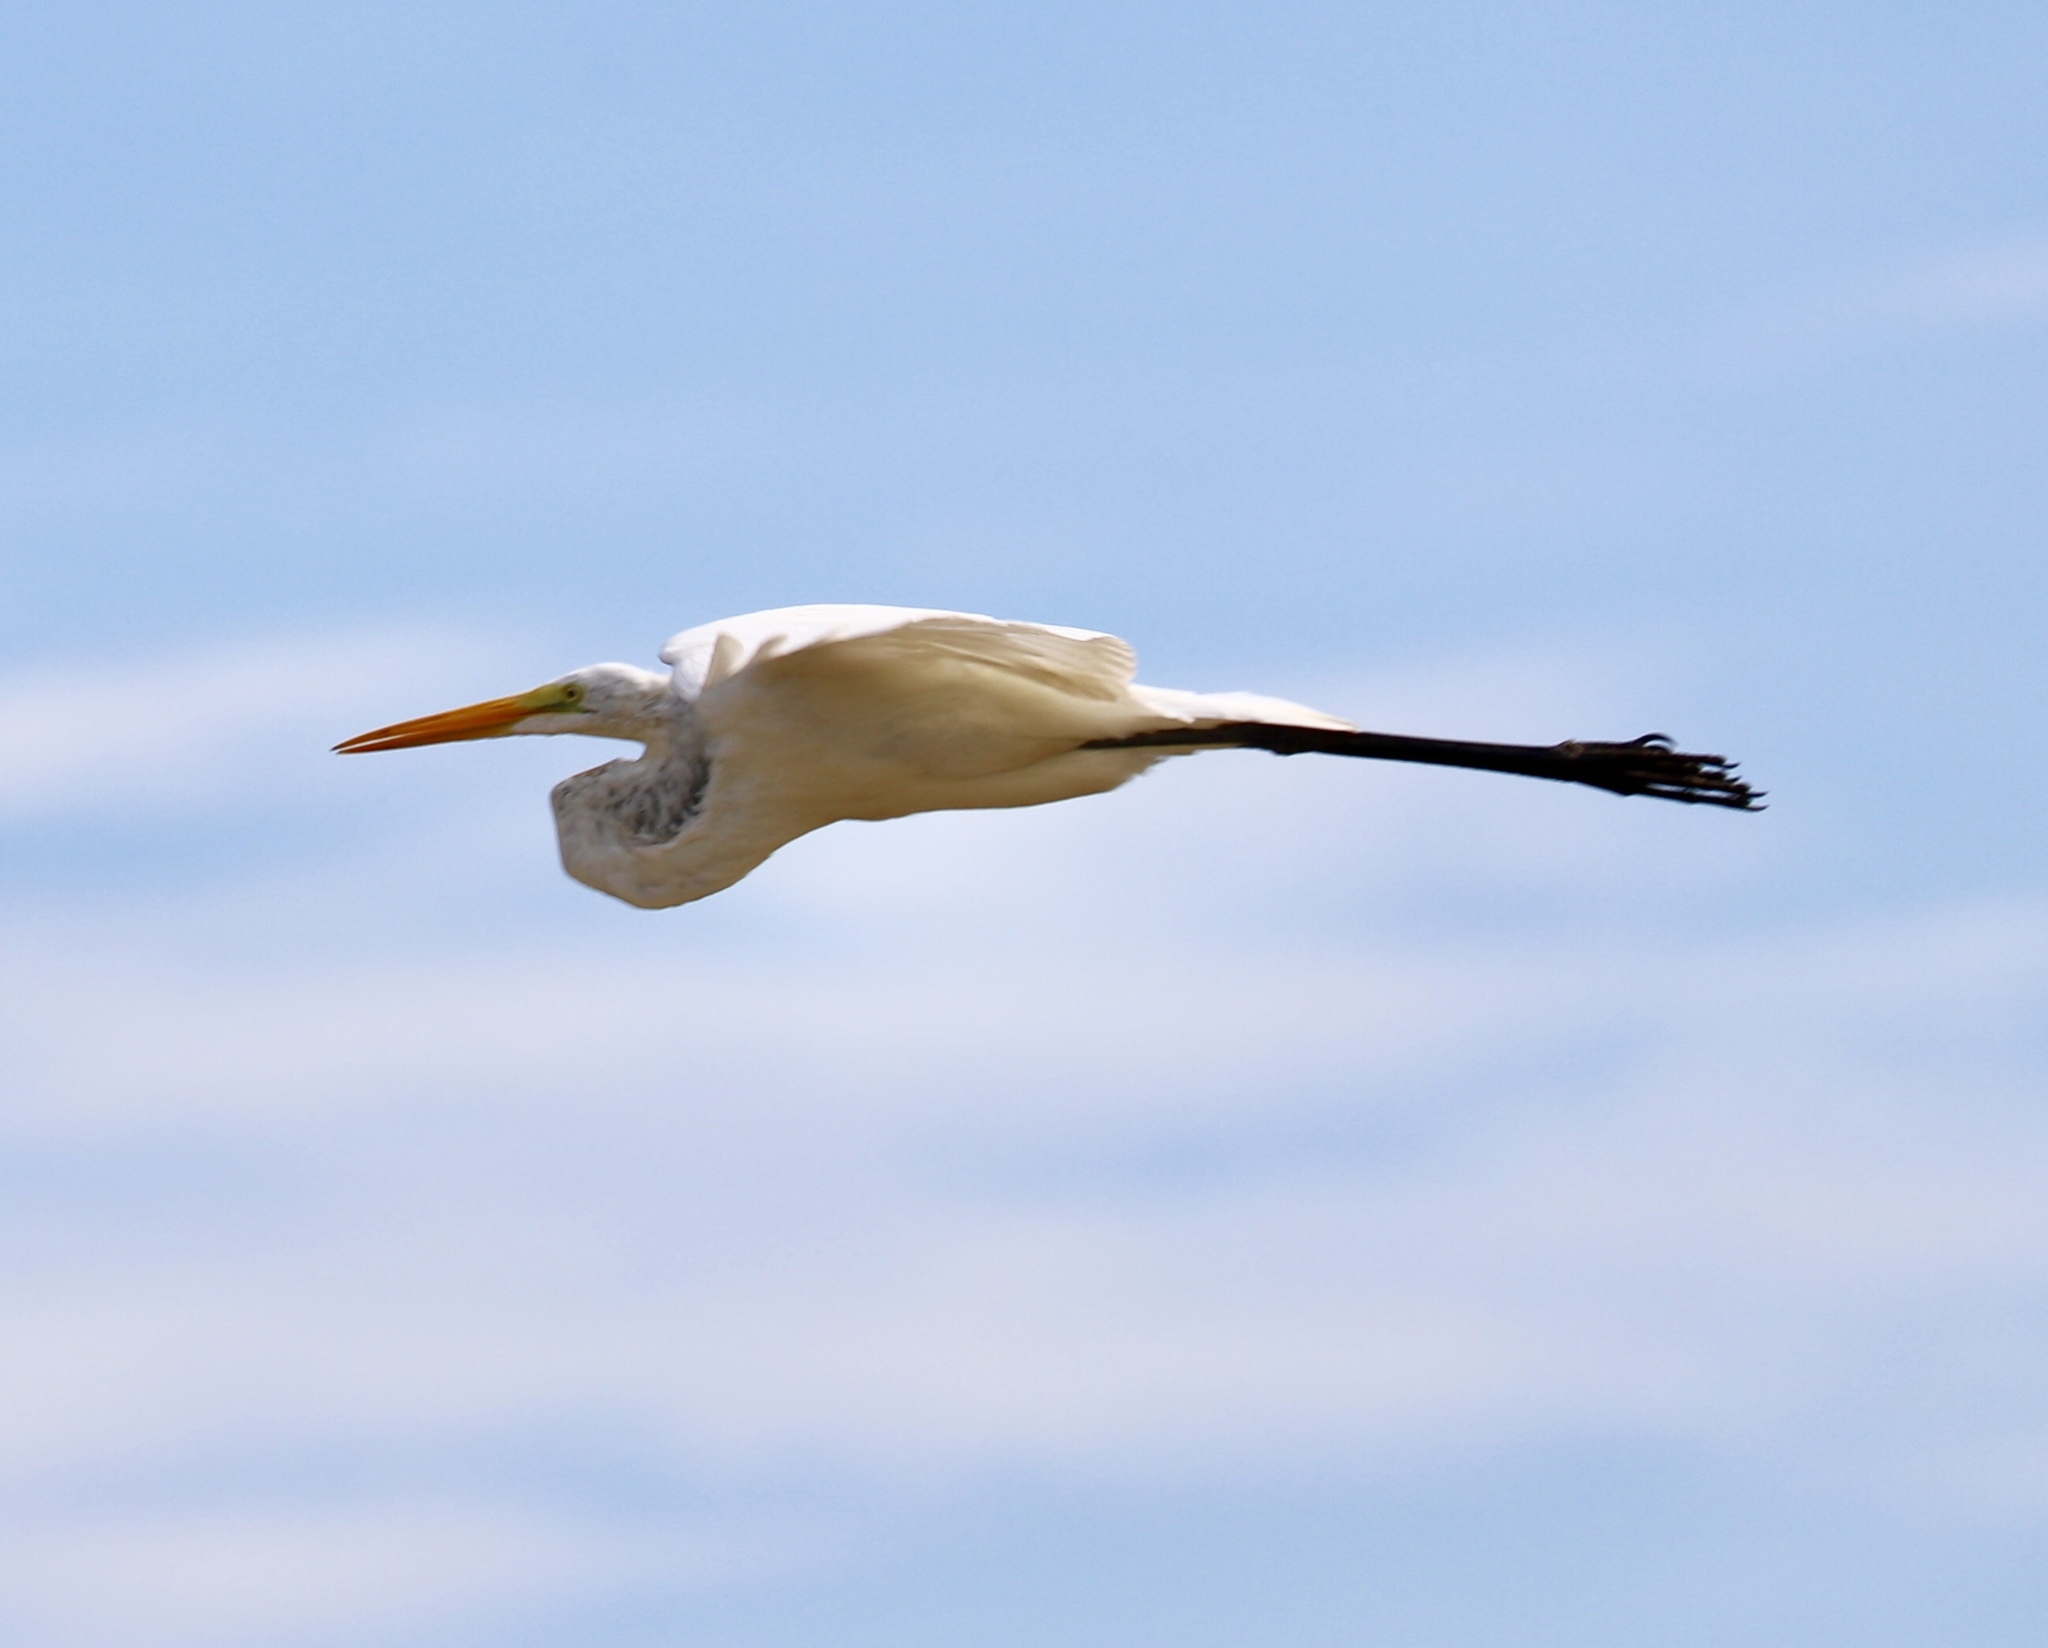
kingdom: Animalia
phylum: Chordata
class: Aves
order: Pelecaniformes
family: Ardeidae
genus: Ardea
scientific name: Ardea alba
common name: Great egret
